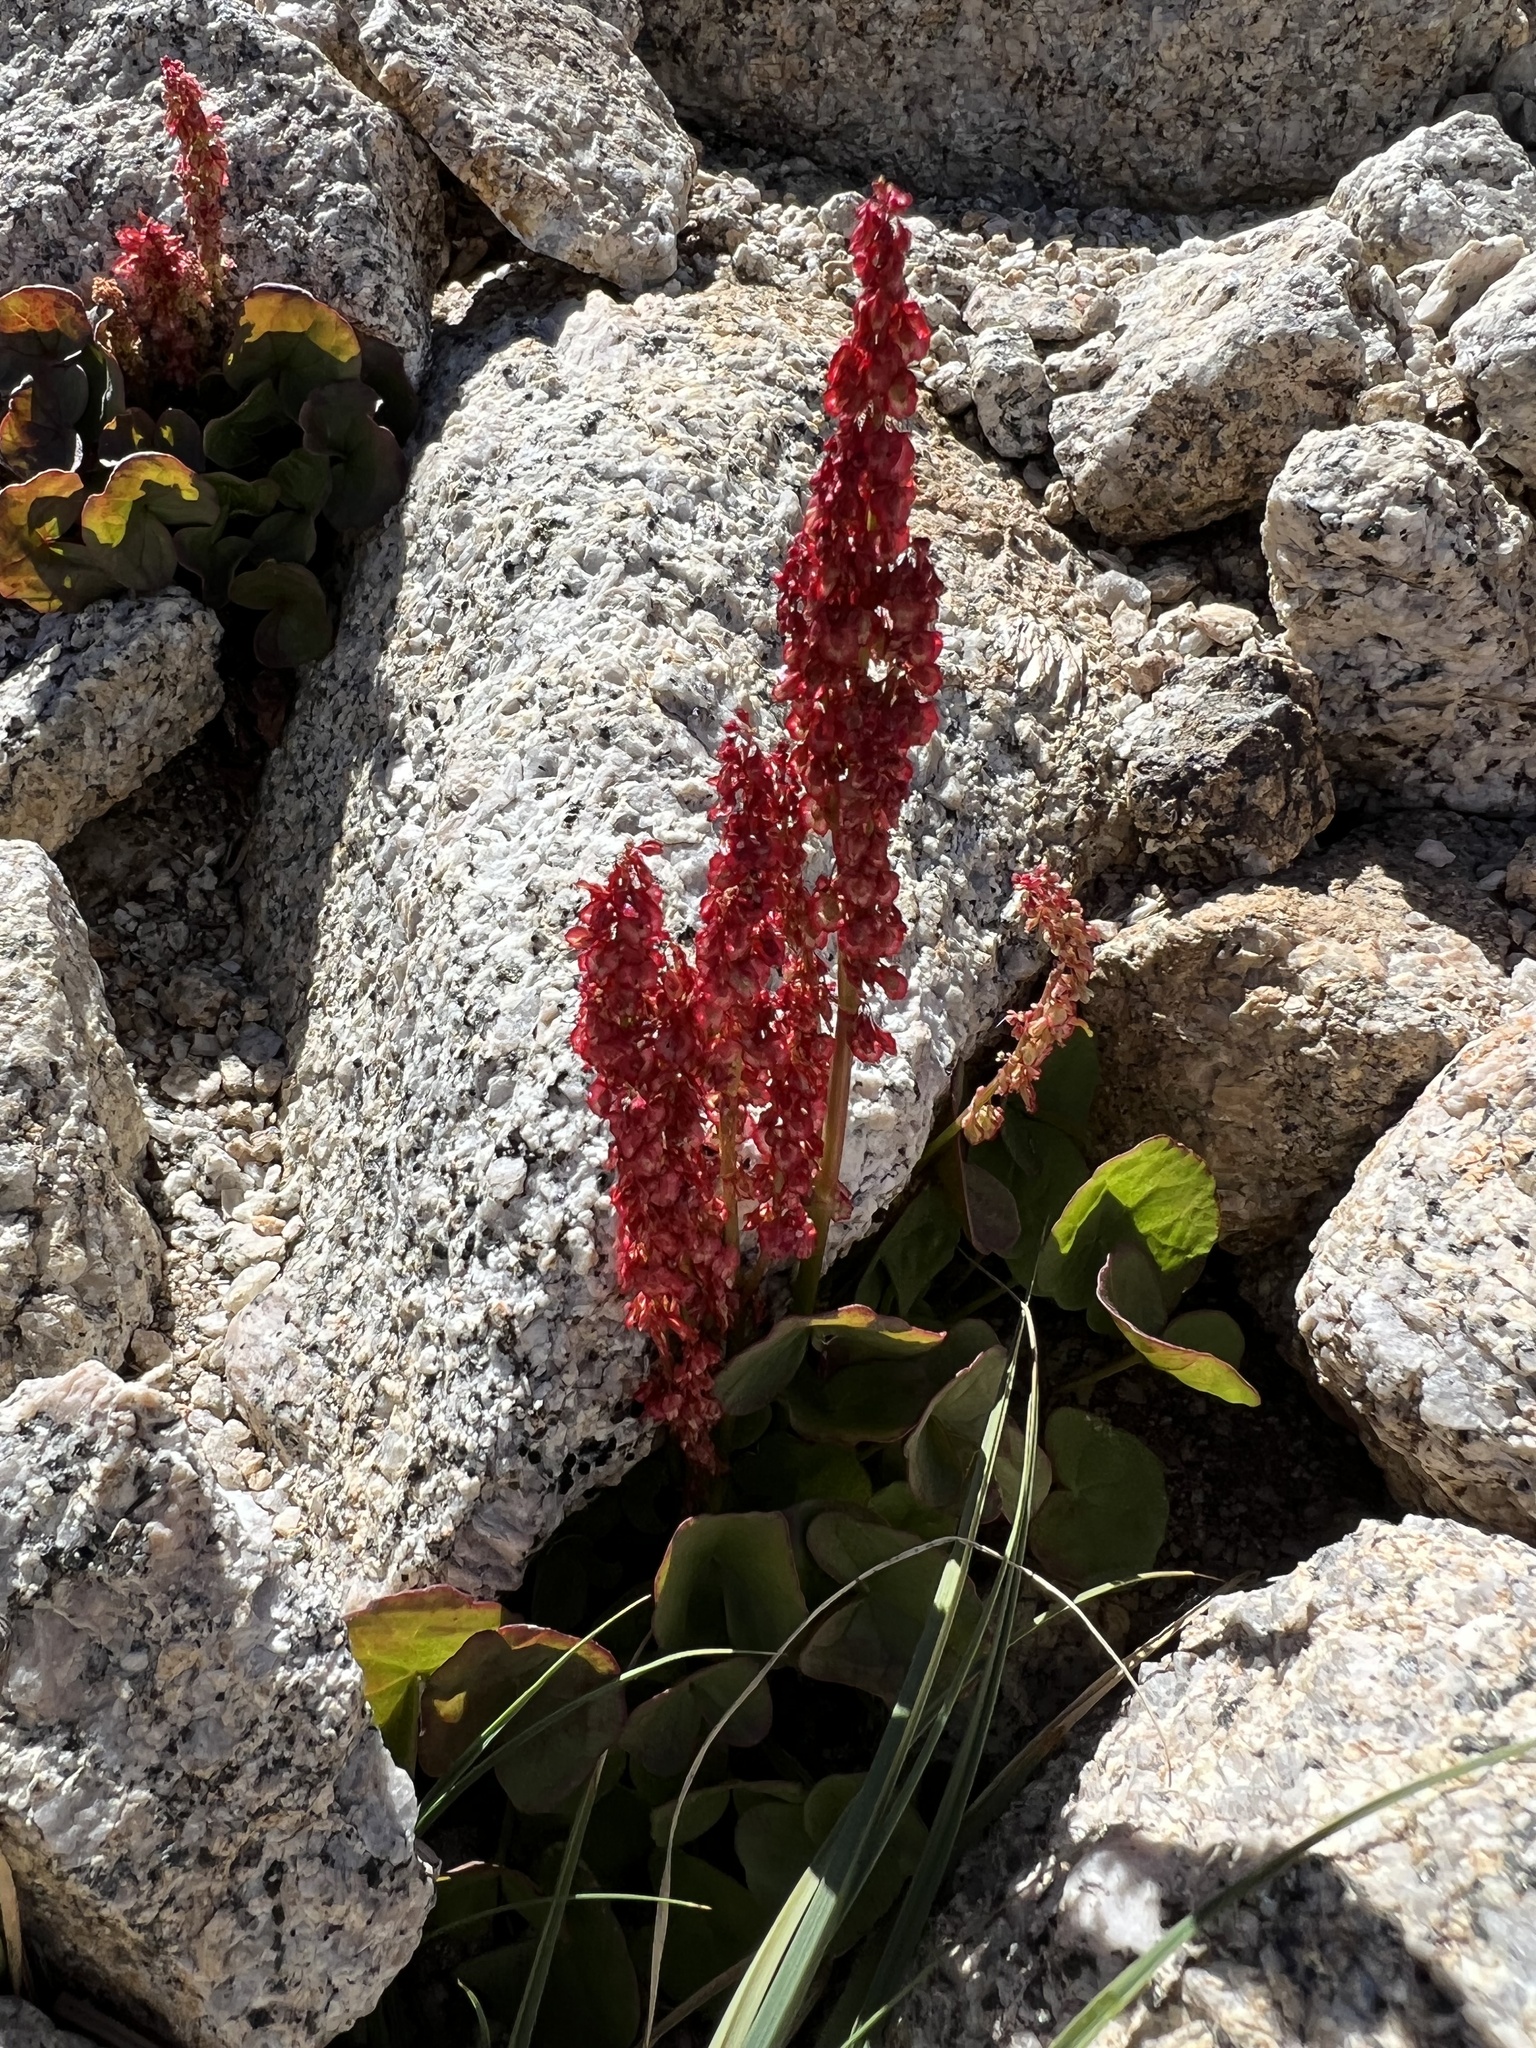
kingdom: Plantae
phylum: Tracheophyta
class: Magnoliopsida
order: Caryophyllales
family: Polygonaceae
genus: Oxyria
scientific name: Oxyria digyna
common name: Alpine mountain-sorrel
